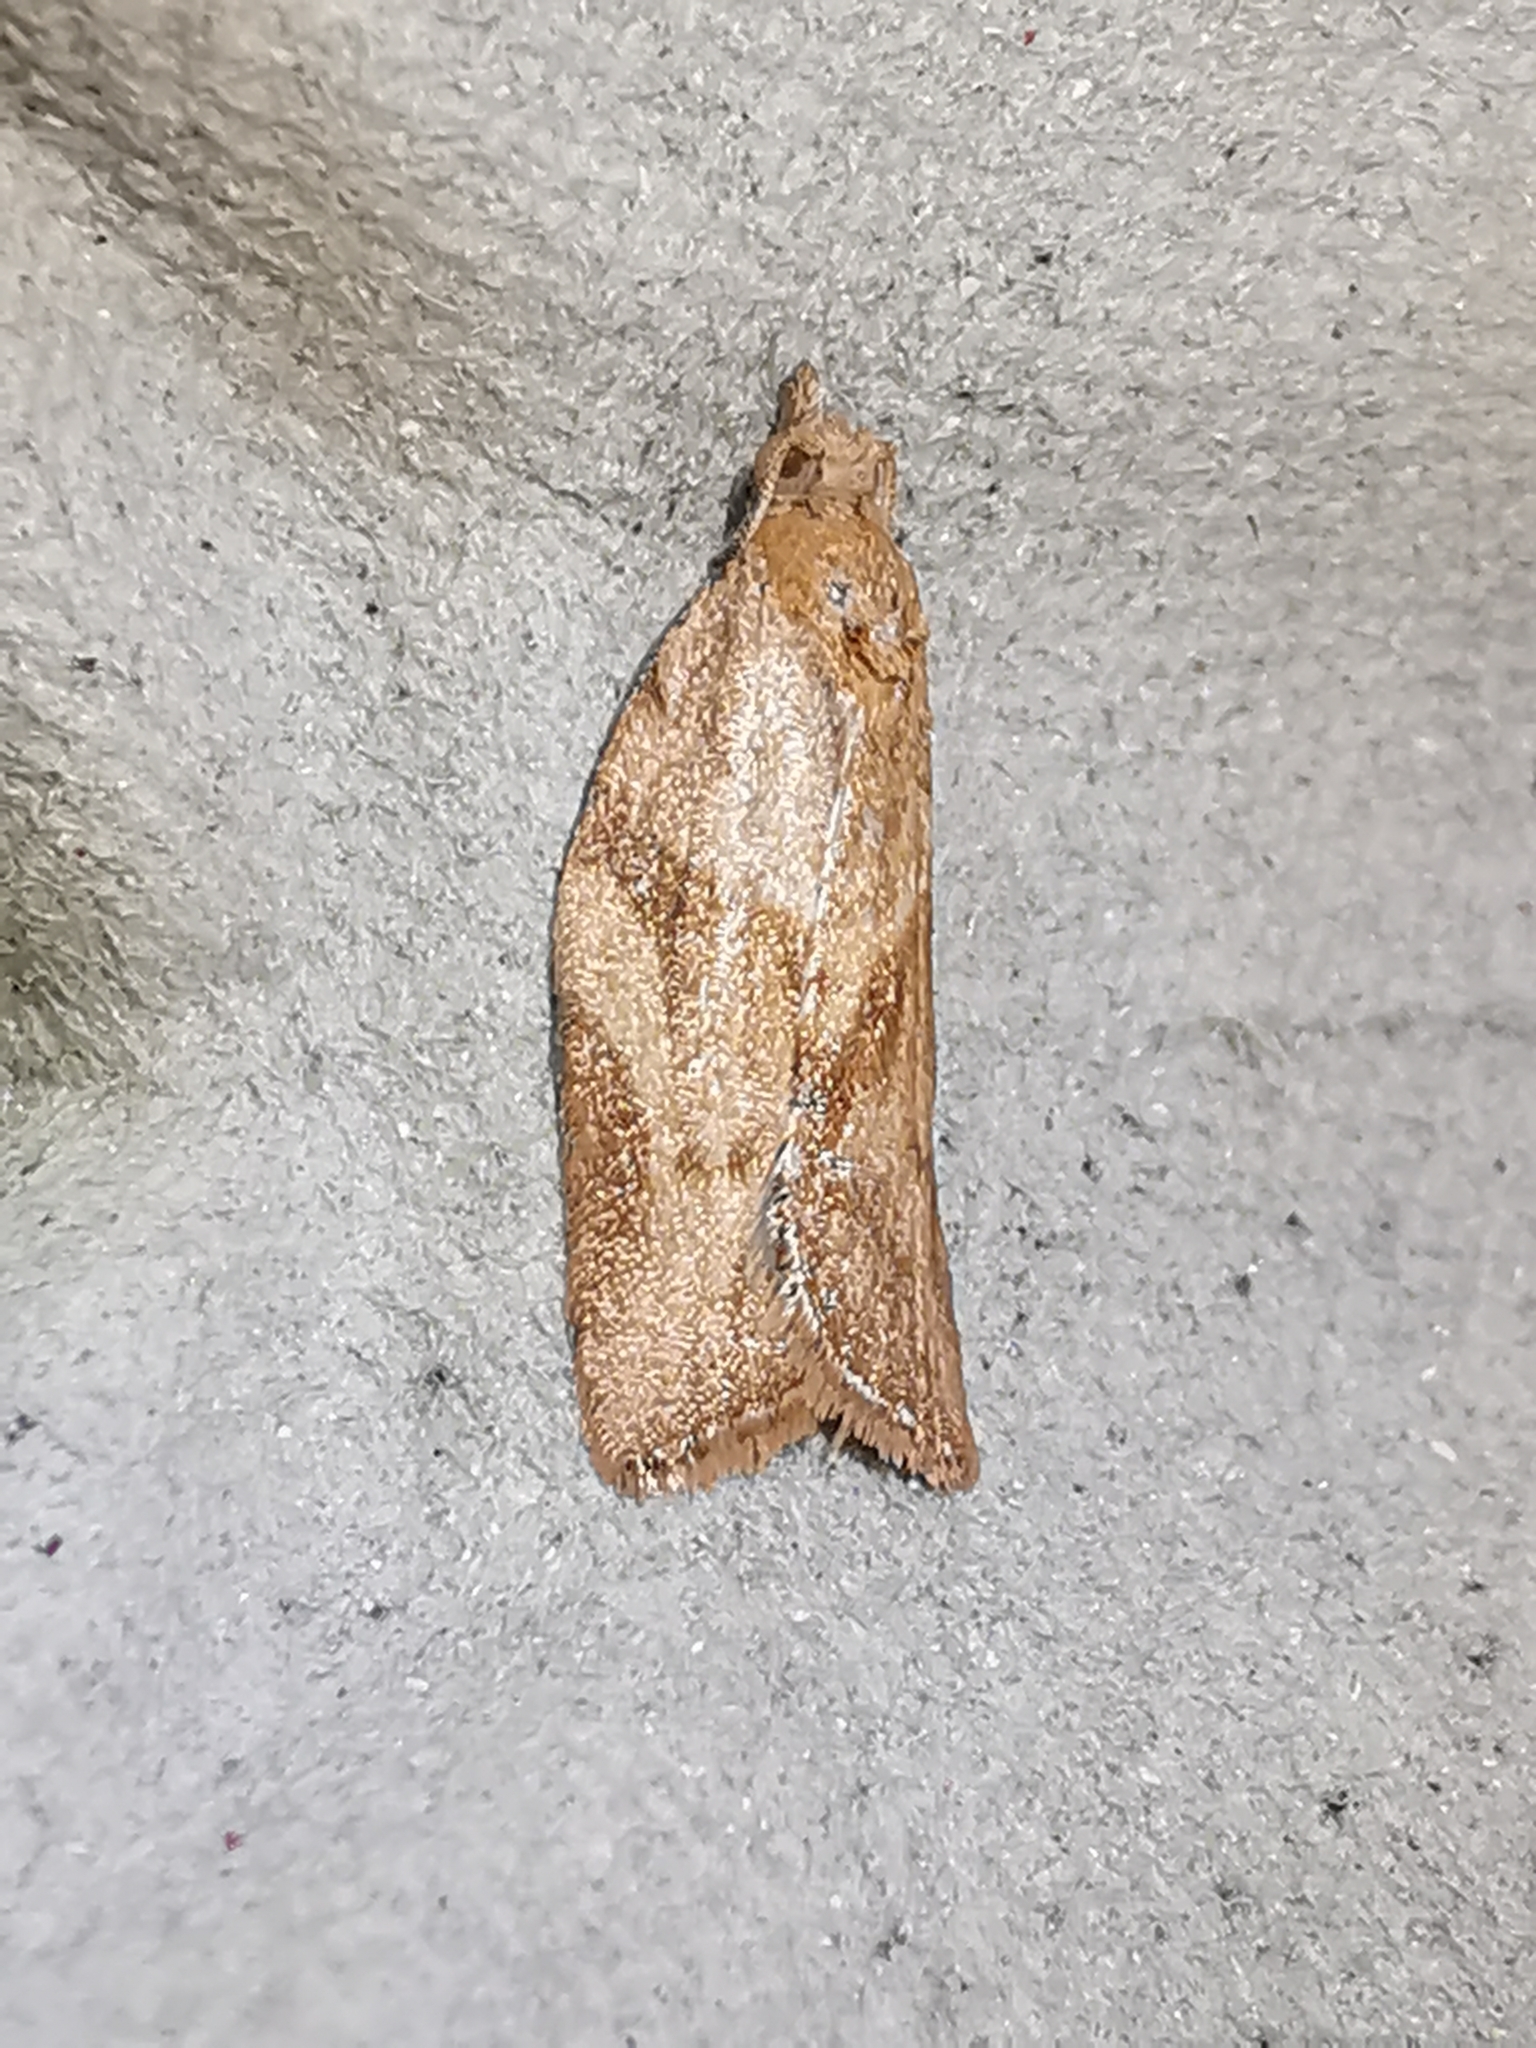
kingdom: Animalia
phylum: Arthropoda
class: Insecta
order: Lepidoptera
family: Tortricidae
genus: Epiphyas
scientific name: Epiphyas postvittana
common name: Light brown apple moth
